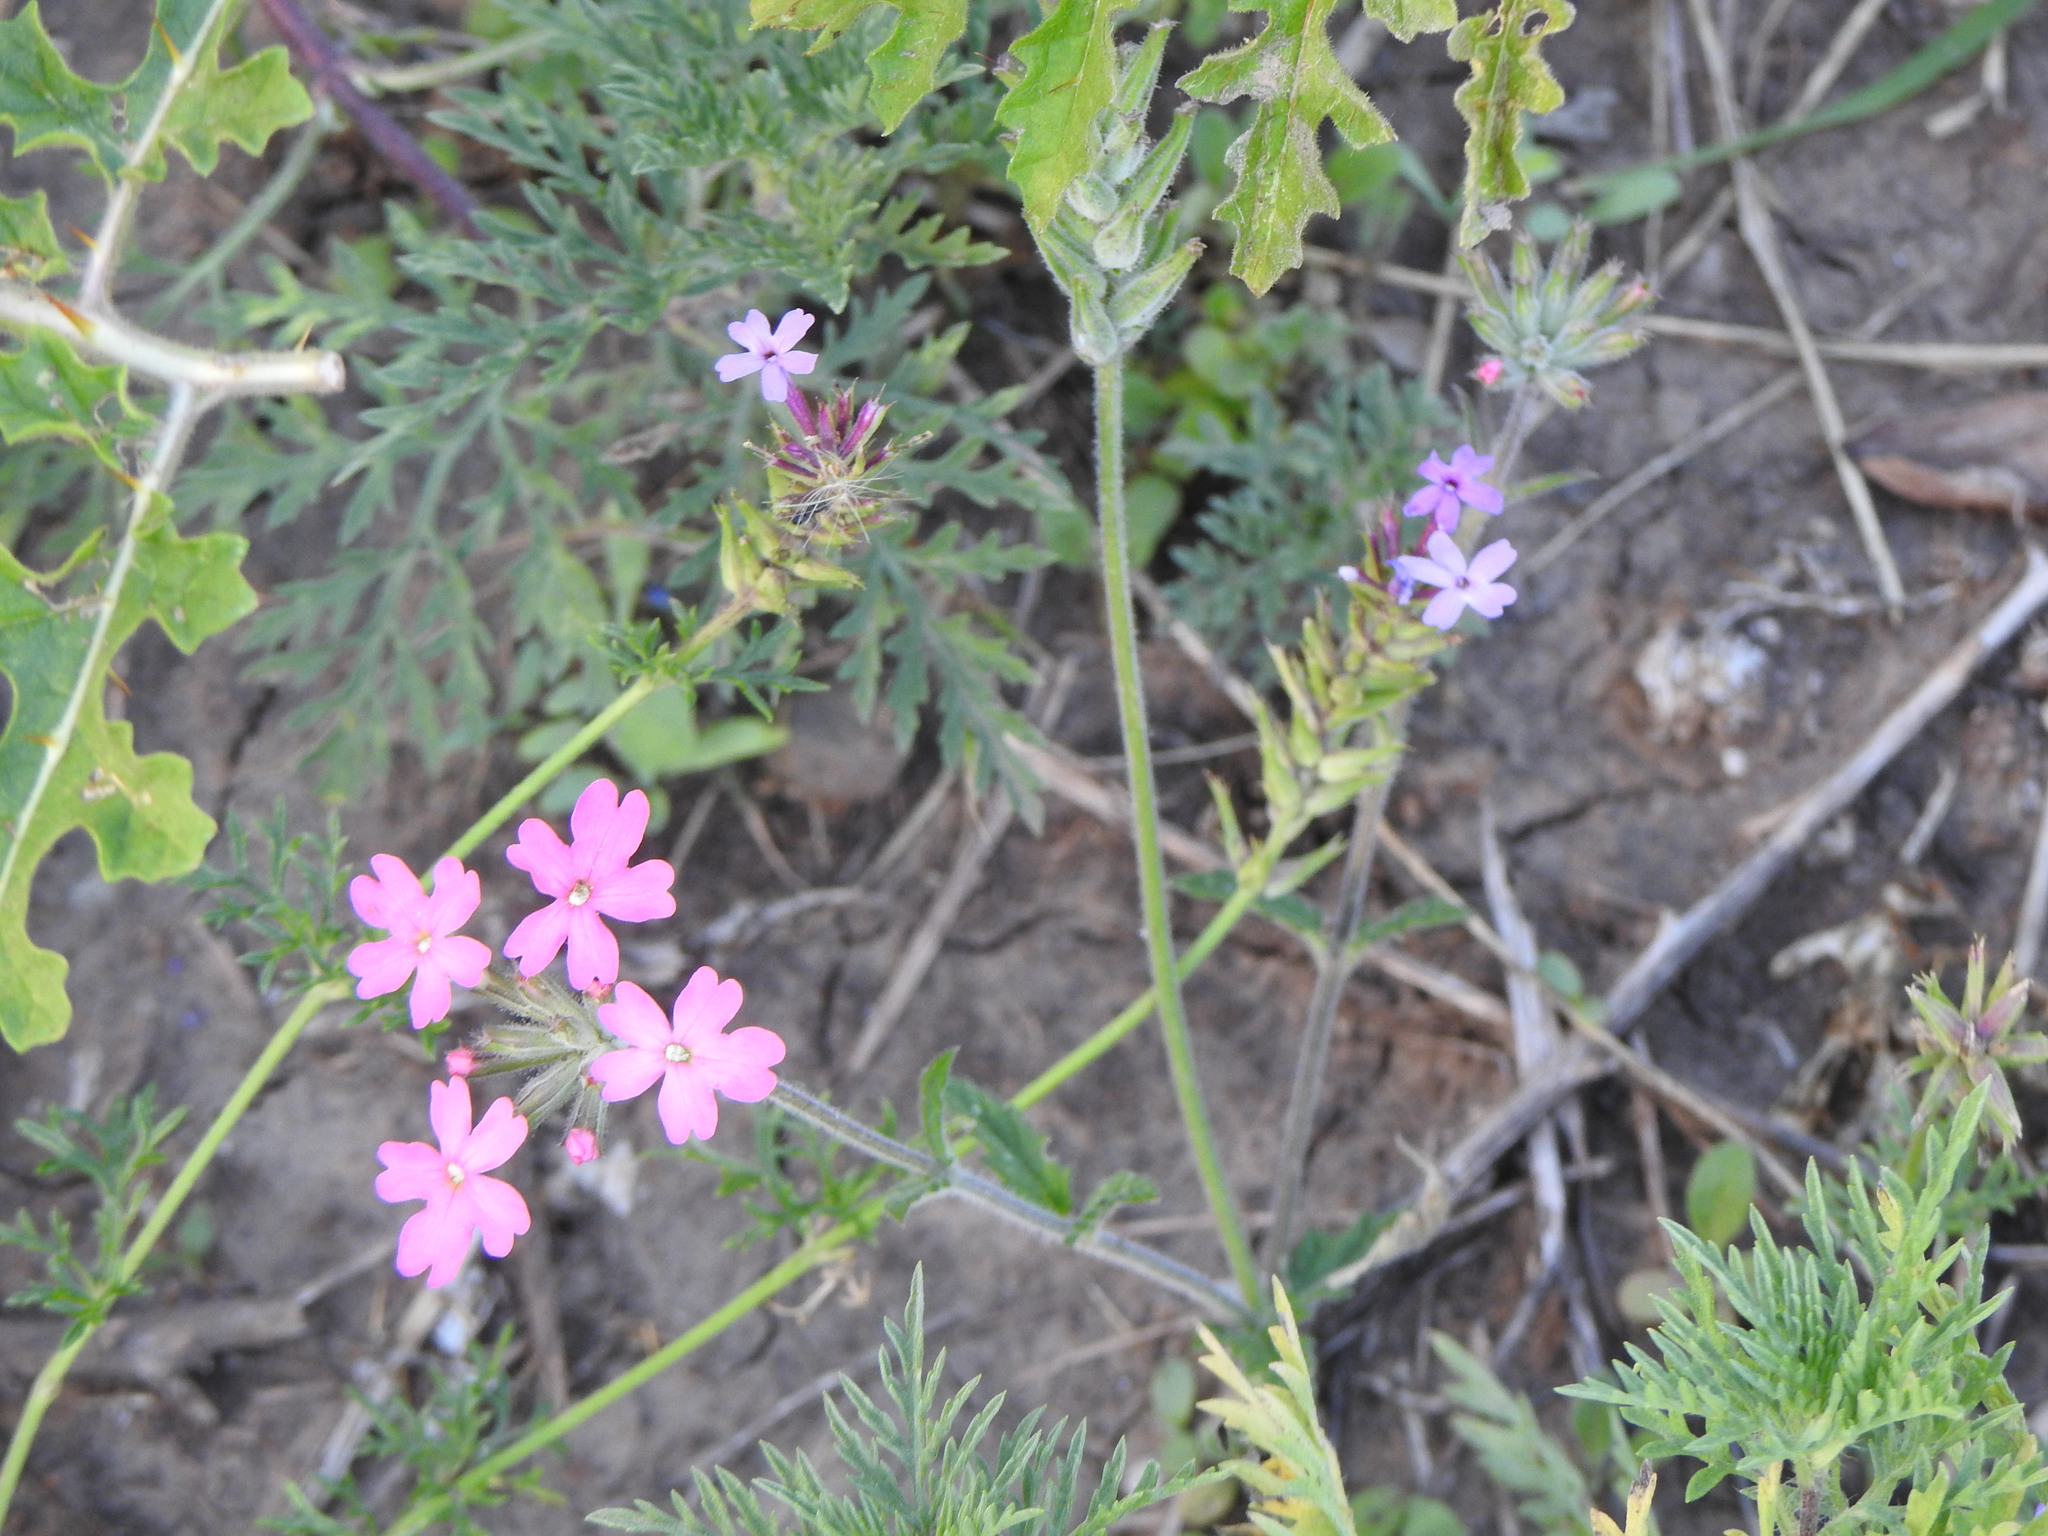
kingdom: Plantae
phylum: Tracheophyta
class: Magnoliopsida
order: Lamiales
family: Verbenaceae
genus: Verbena
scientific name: Verbena tweedieana
